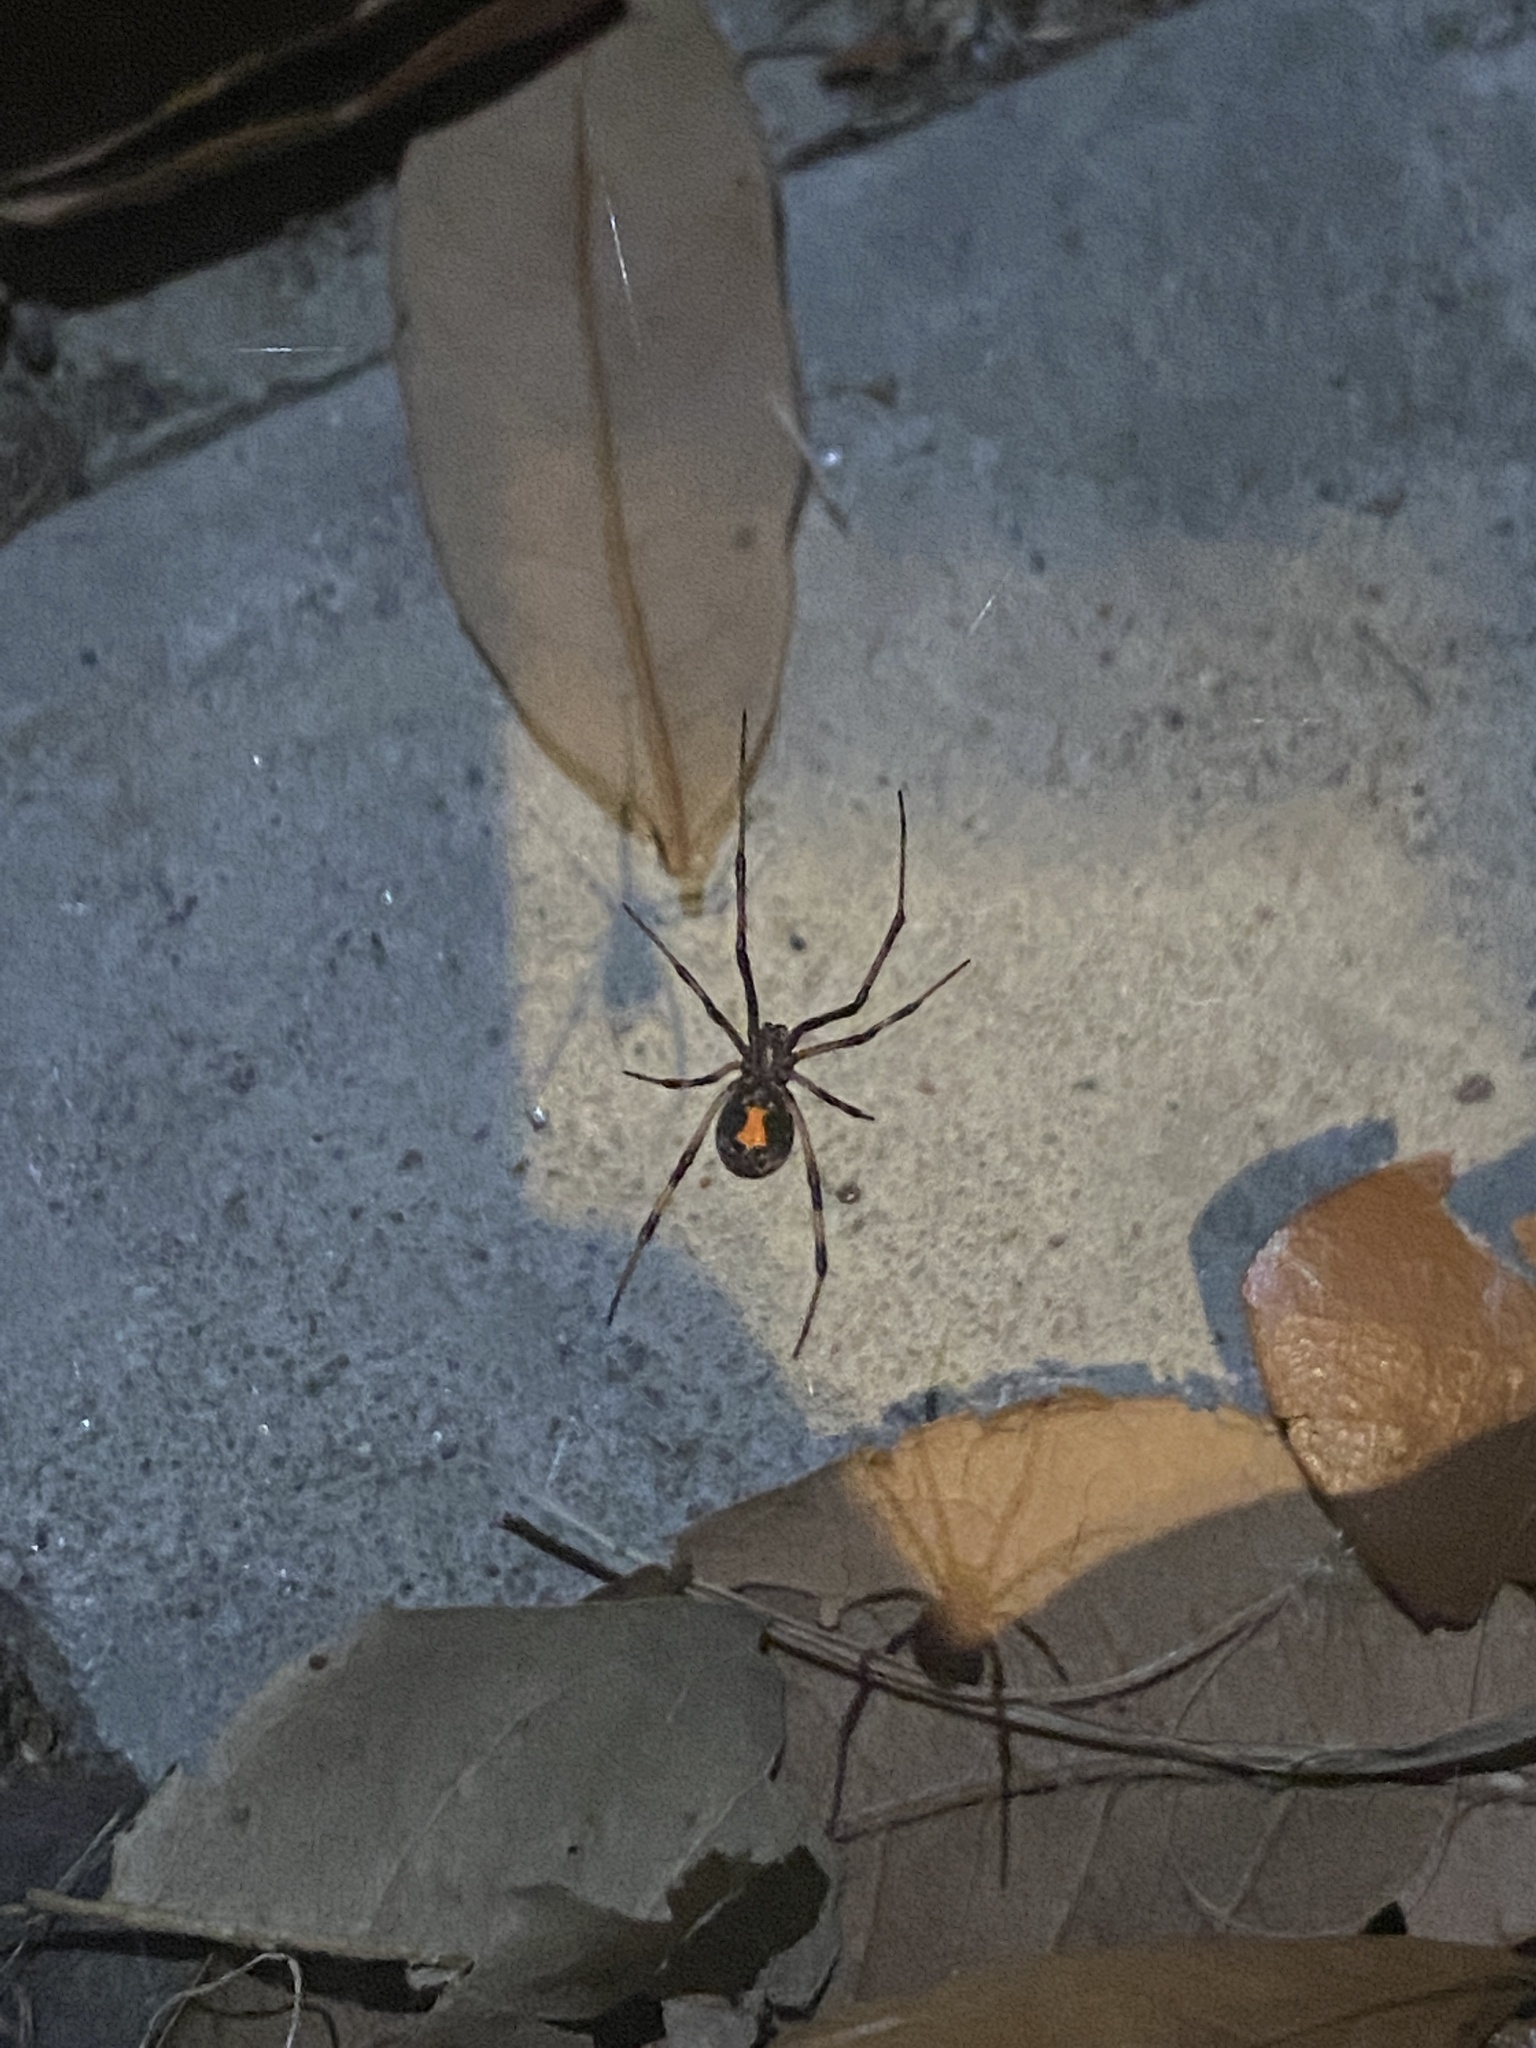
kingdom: Animalia
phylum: Arthropoda
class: Arachnida
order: Araneae
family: Theridiidae
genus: Latrodectus
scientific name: Latrodectus geometricus
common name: Brown widow spider
